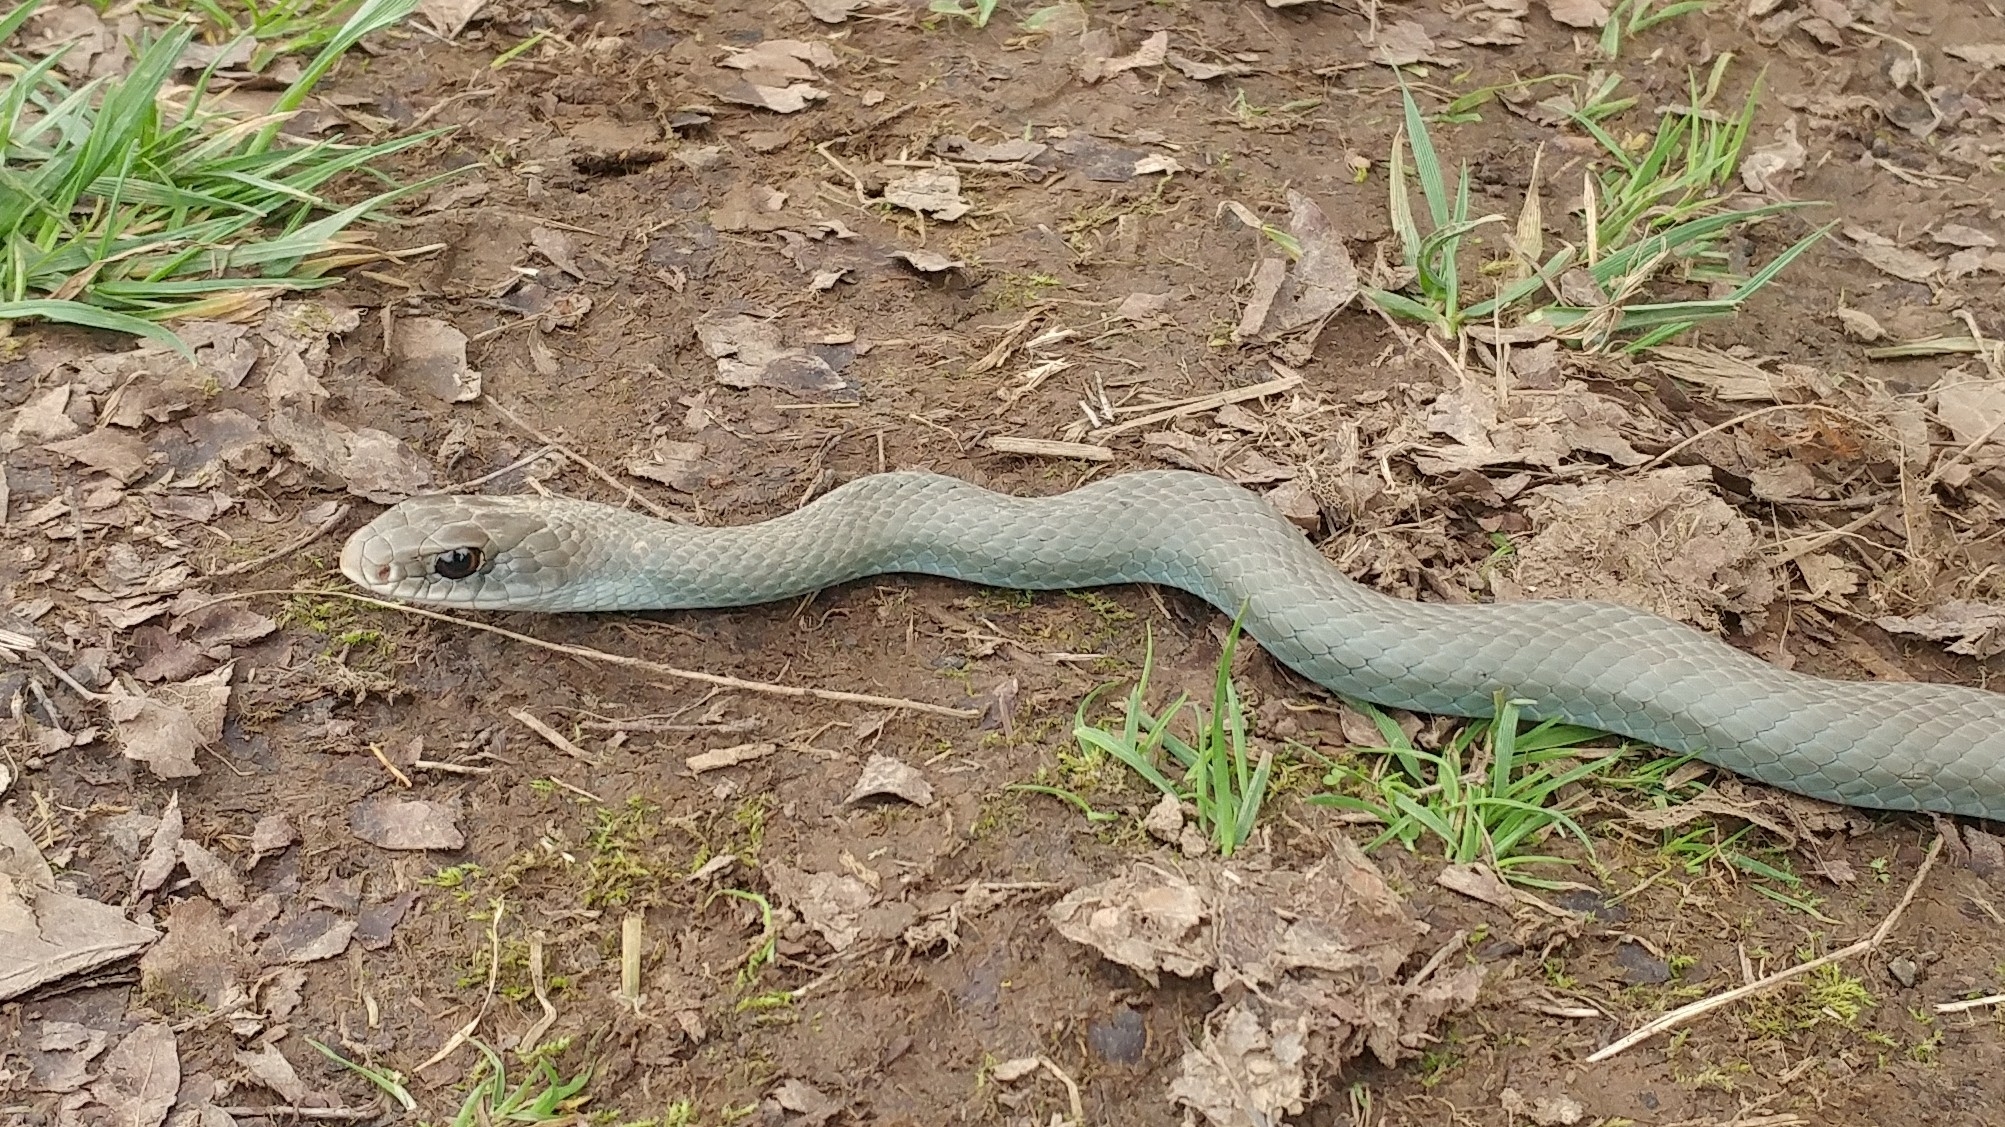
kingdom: Animalia
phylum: Chordata
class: Squamata
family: Colubridae
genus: Coluber
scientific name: Coluber constrictor
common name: Eastern racer
